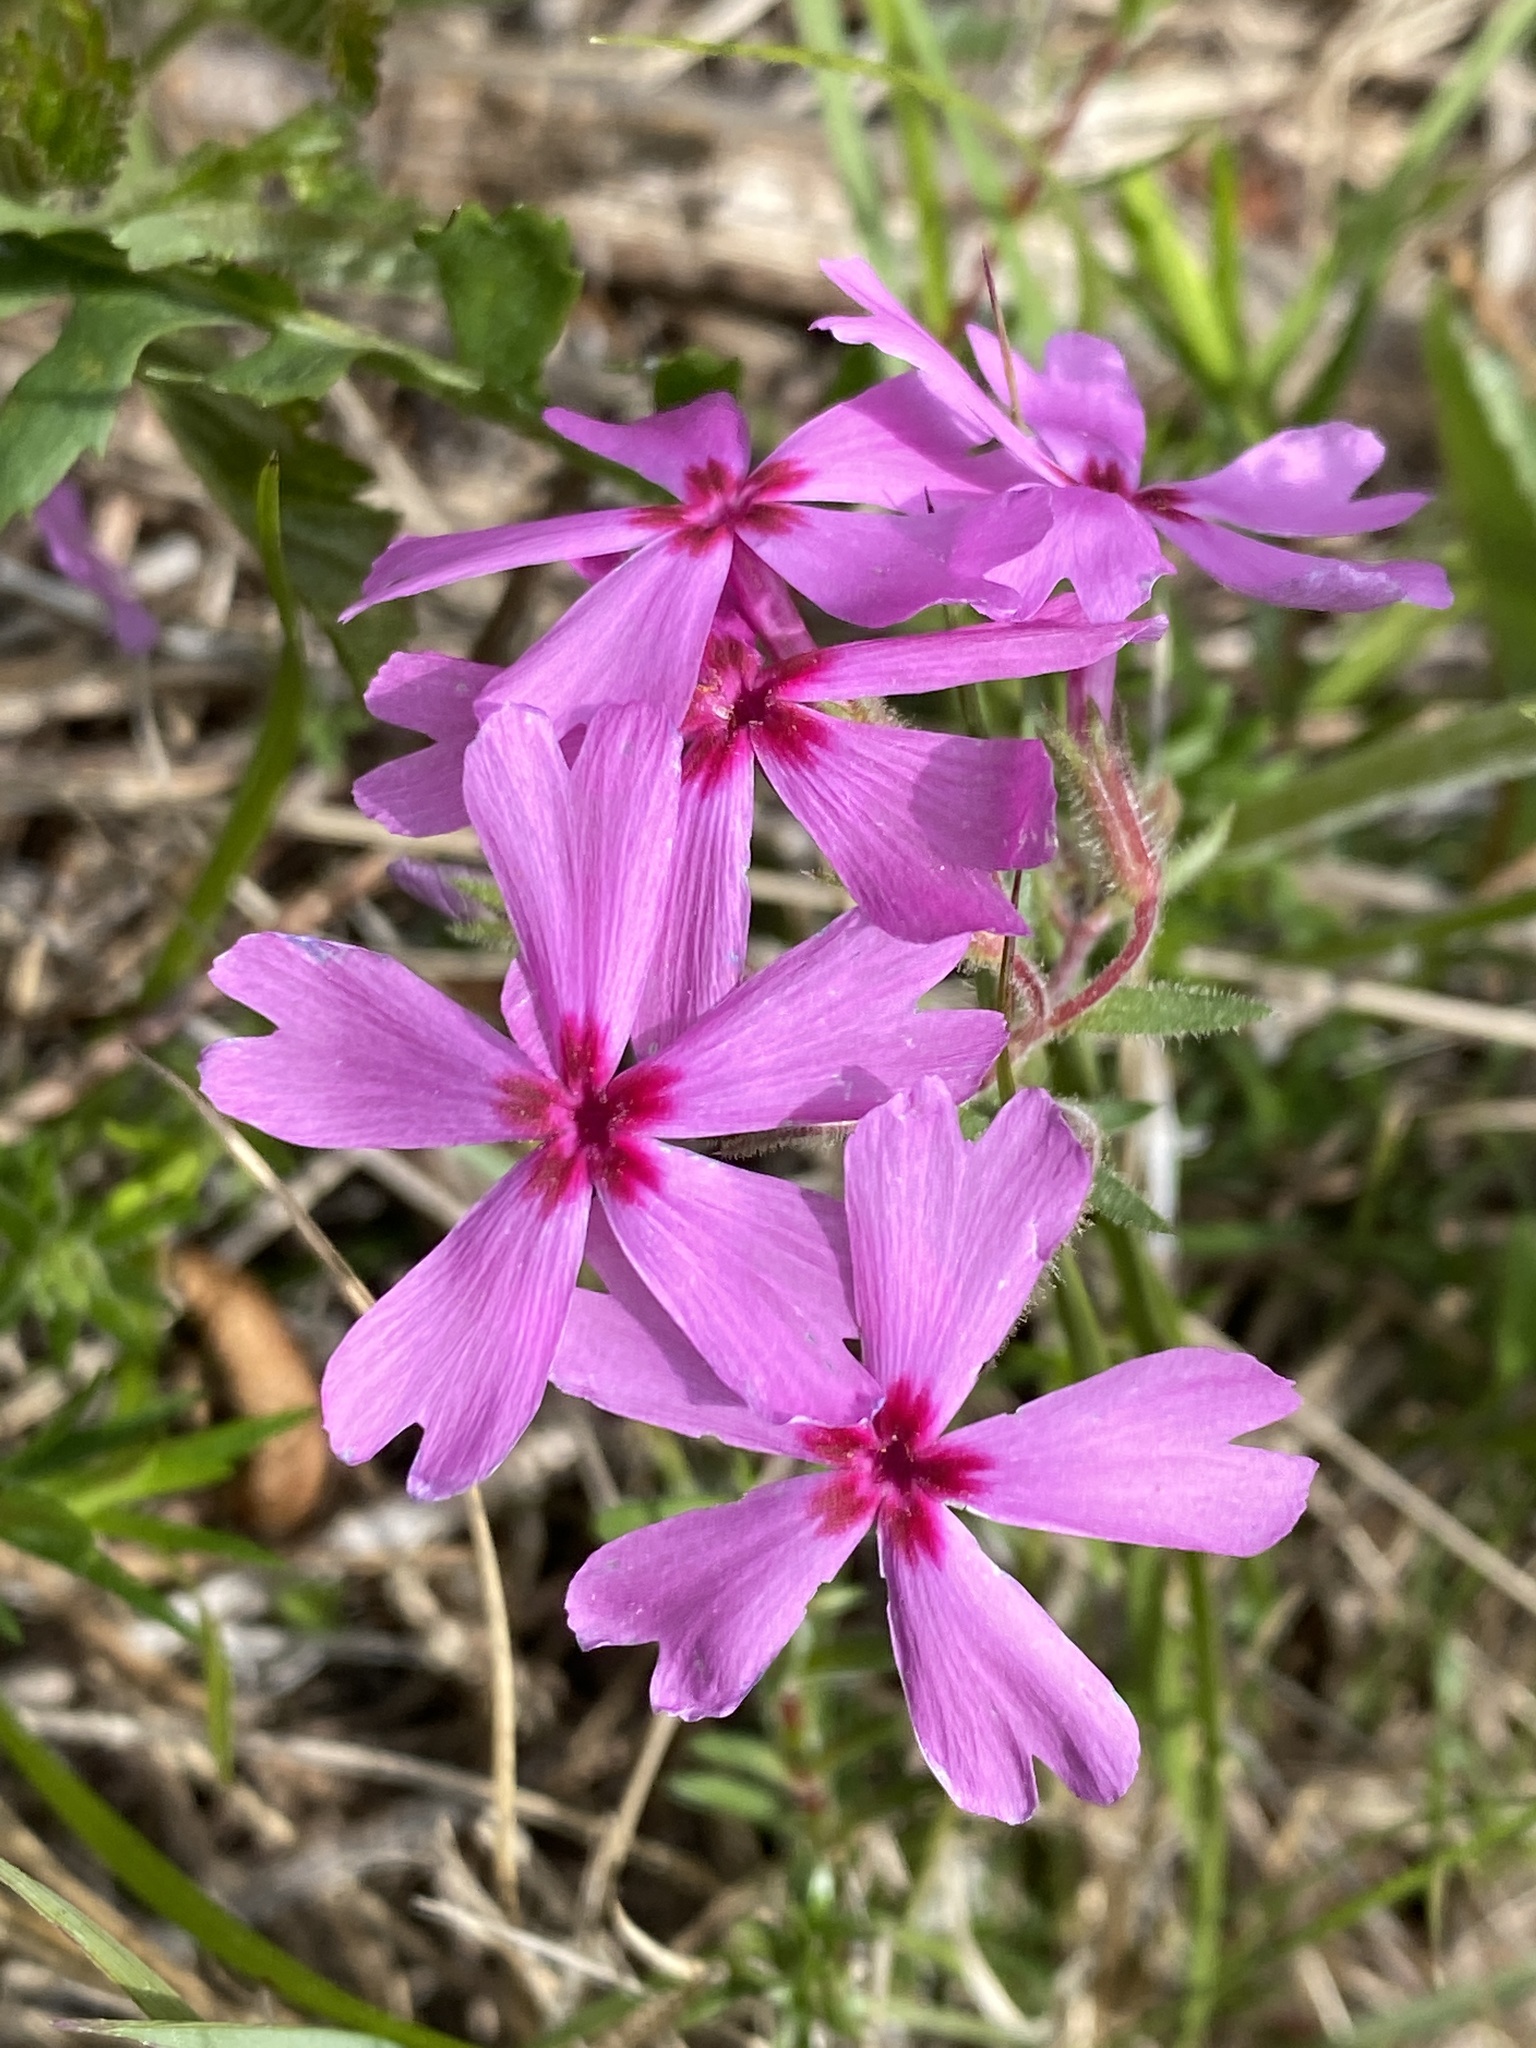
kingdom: Plantae
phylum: Tracheophyta
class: Magnoliopsida
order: Ericales
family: Polemoniaceae
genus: Phlox
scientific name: Phlox nivalis
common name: Trailing phlox
